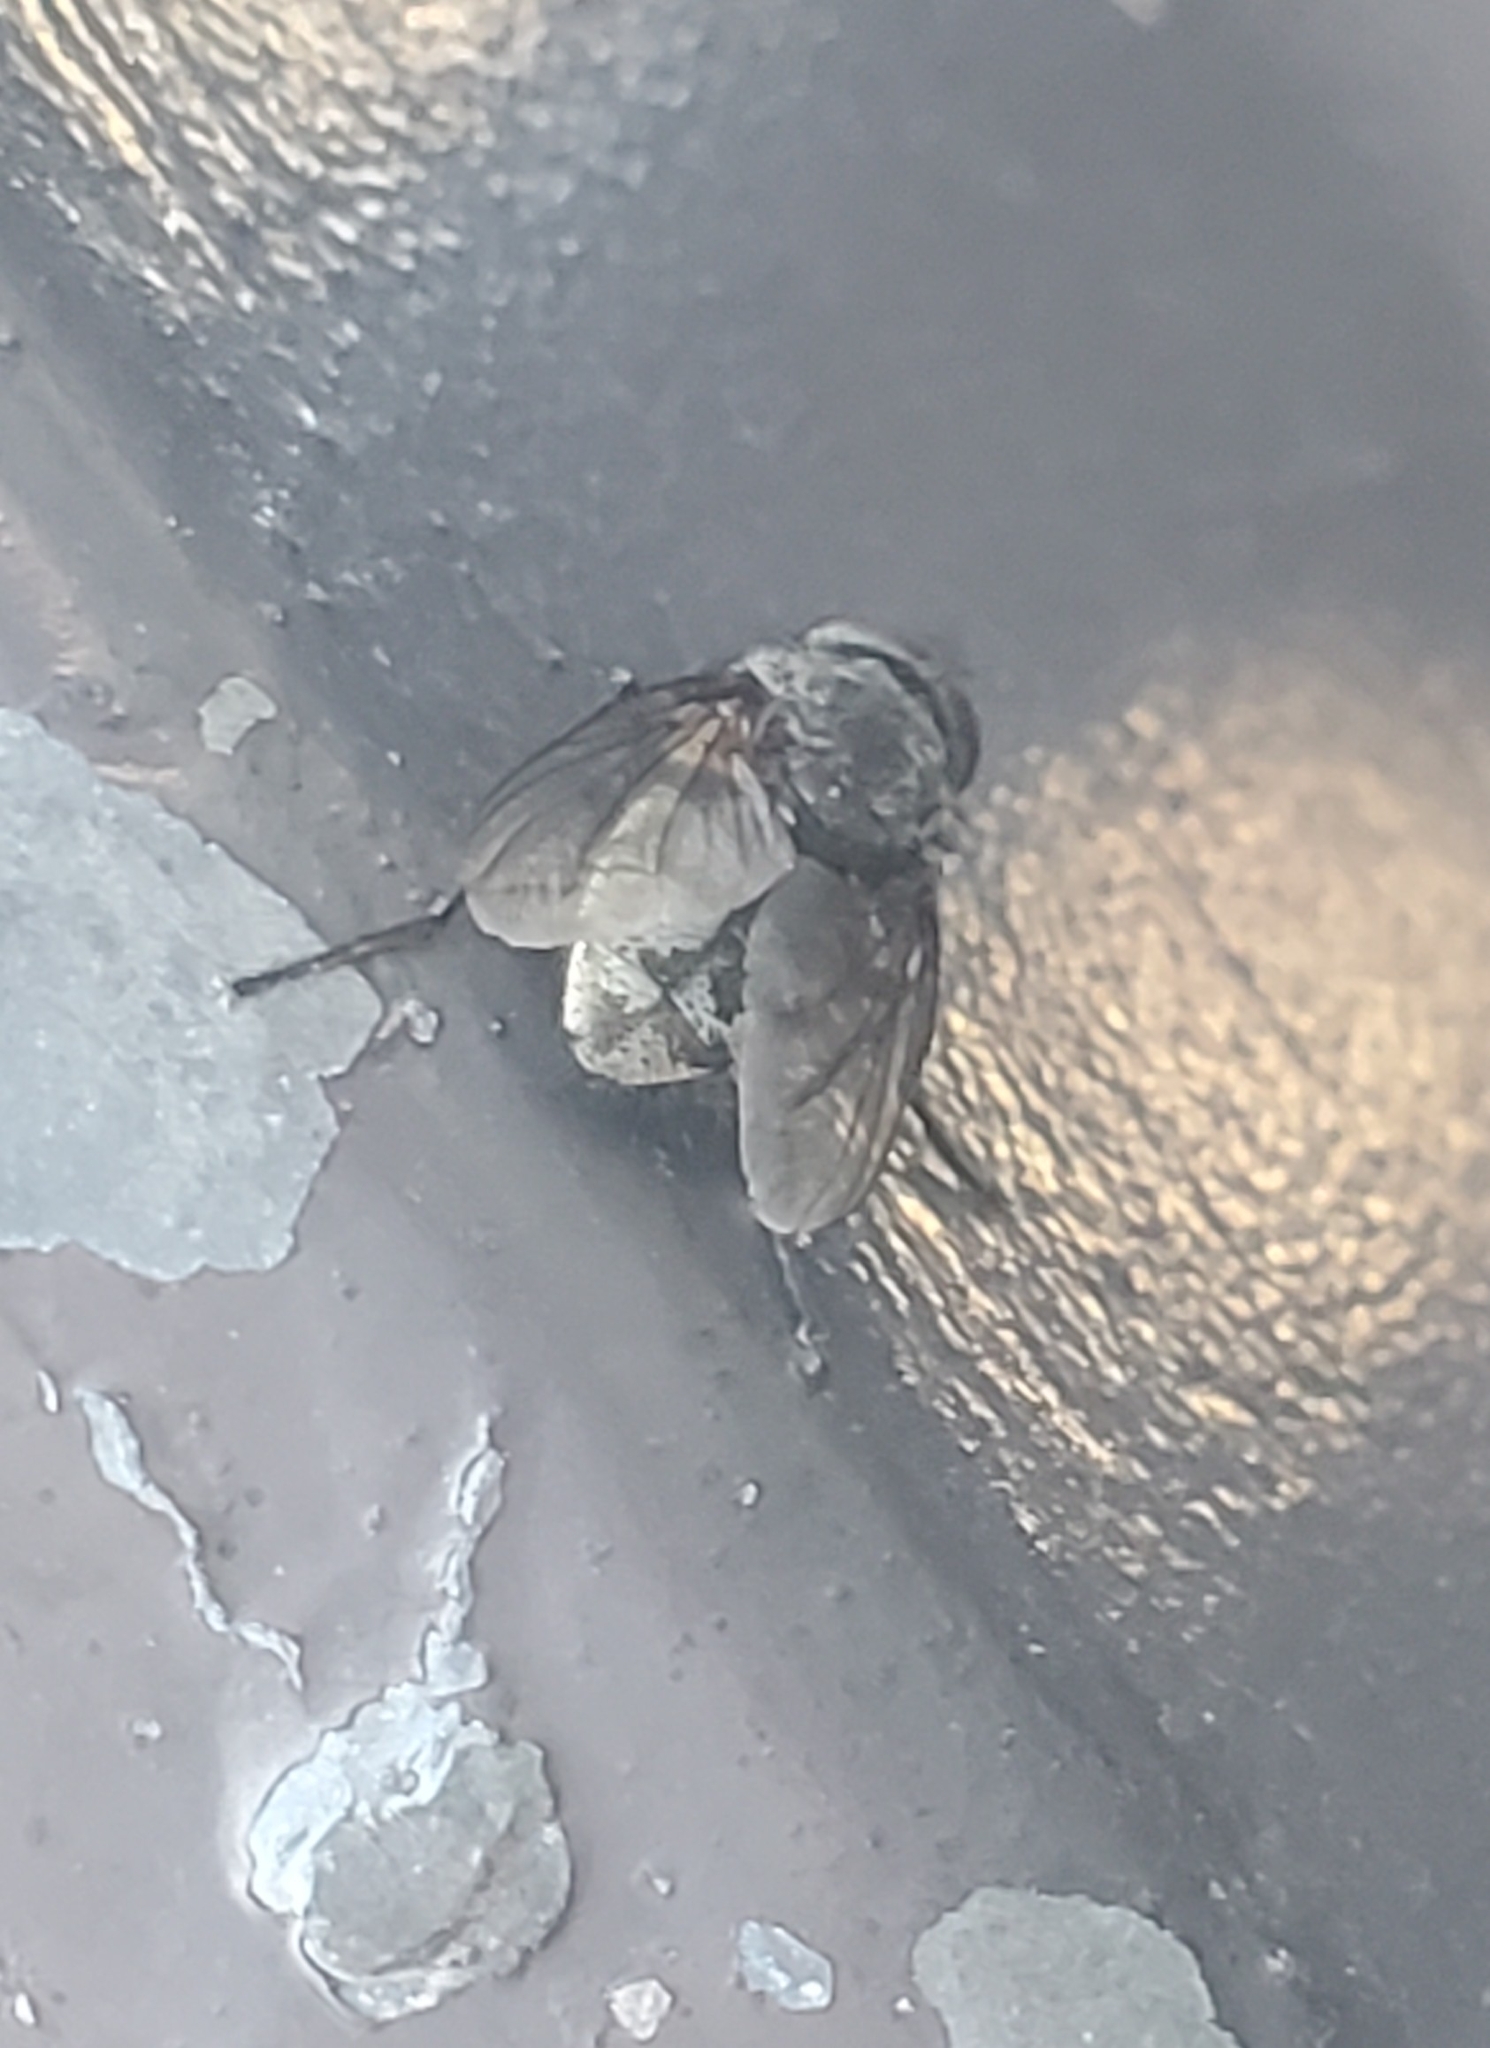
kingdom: Animalia
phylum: Arthropoda
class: Insecta
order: Diptera
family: Polleniidae
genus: Pollenia
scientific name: Pollenia
